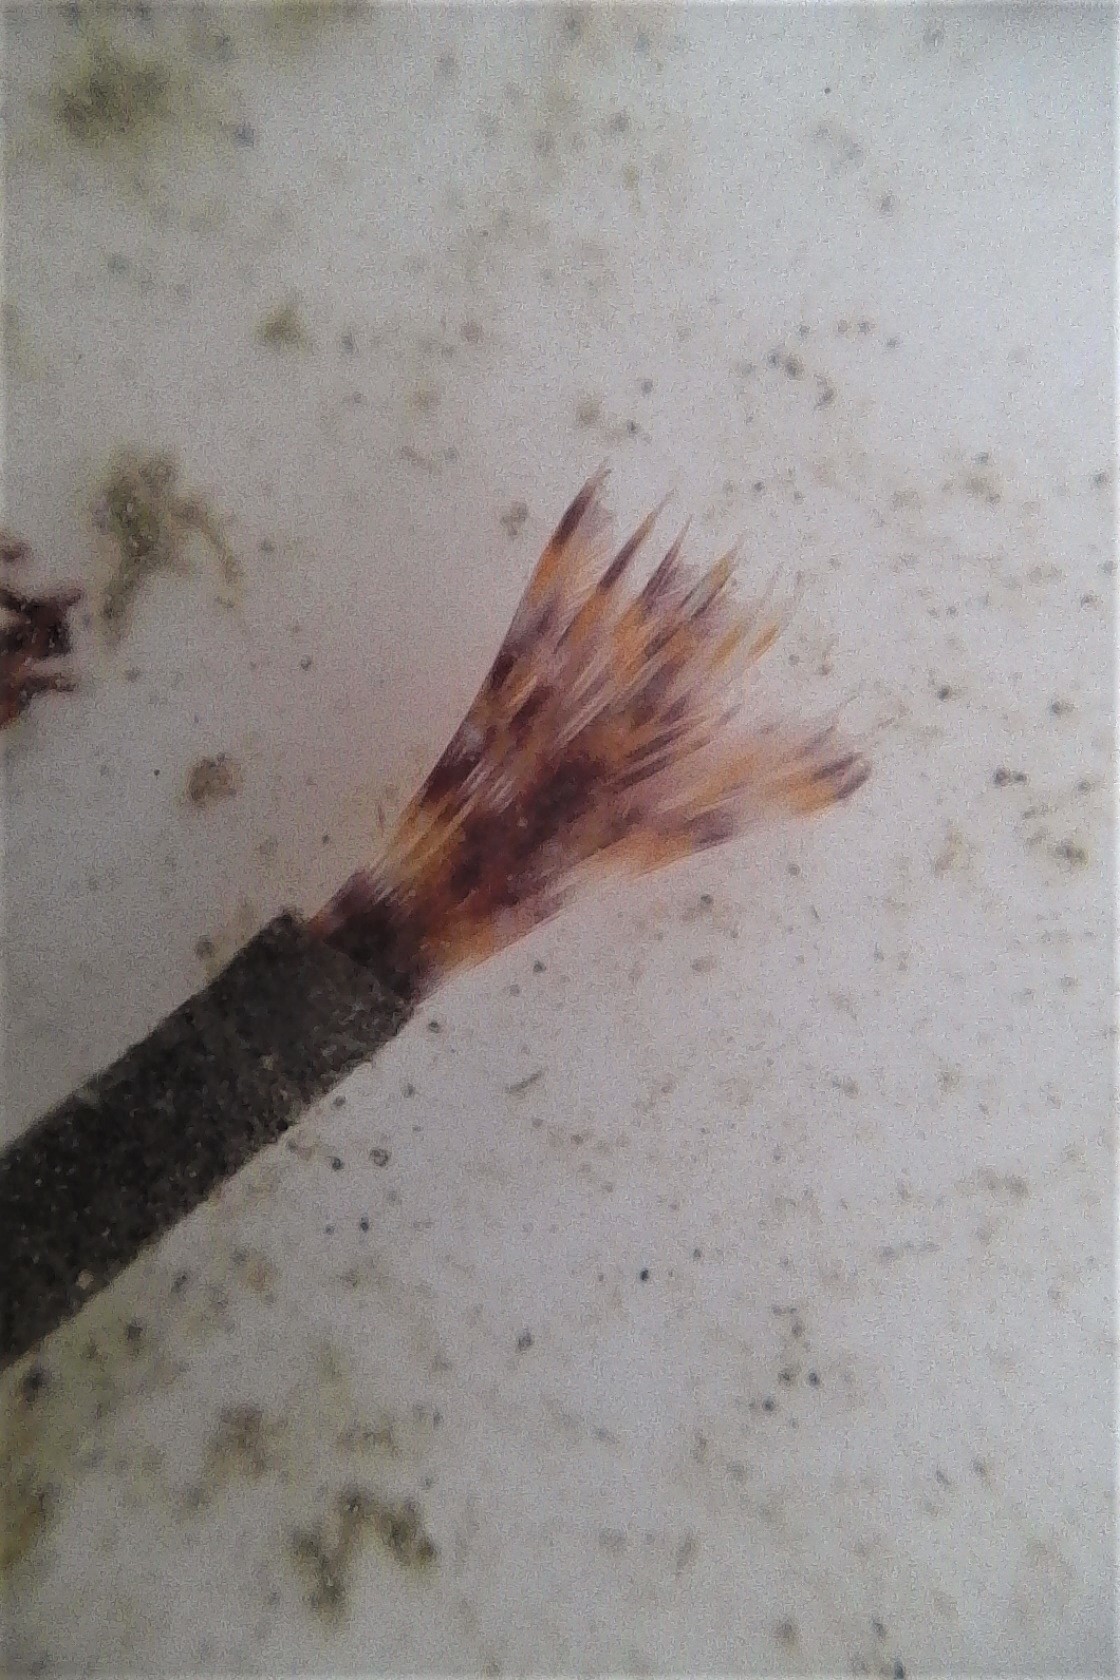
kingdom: Animalia
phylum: Annelida
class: Polychaeta
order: Sabellida
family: Sabellidae
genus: Sabella
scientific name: Sabella spallanzanii
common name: Feather duster worm
